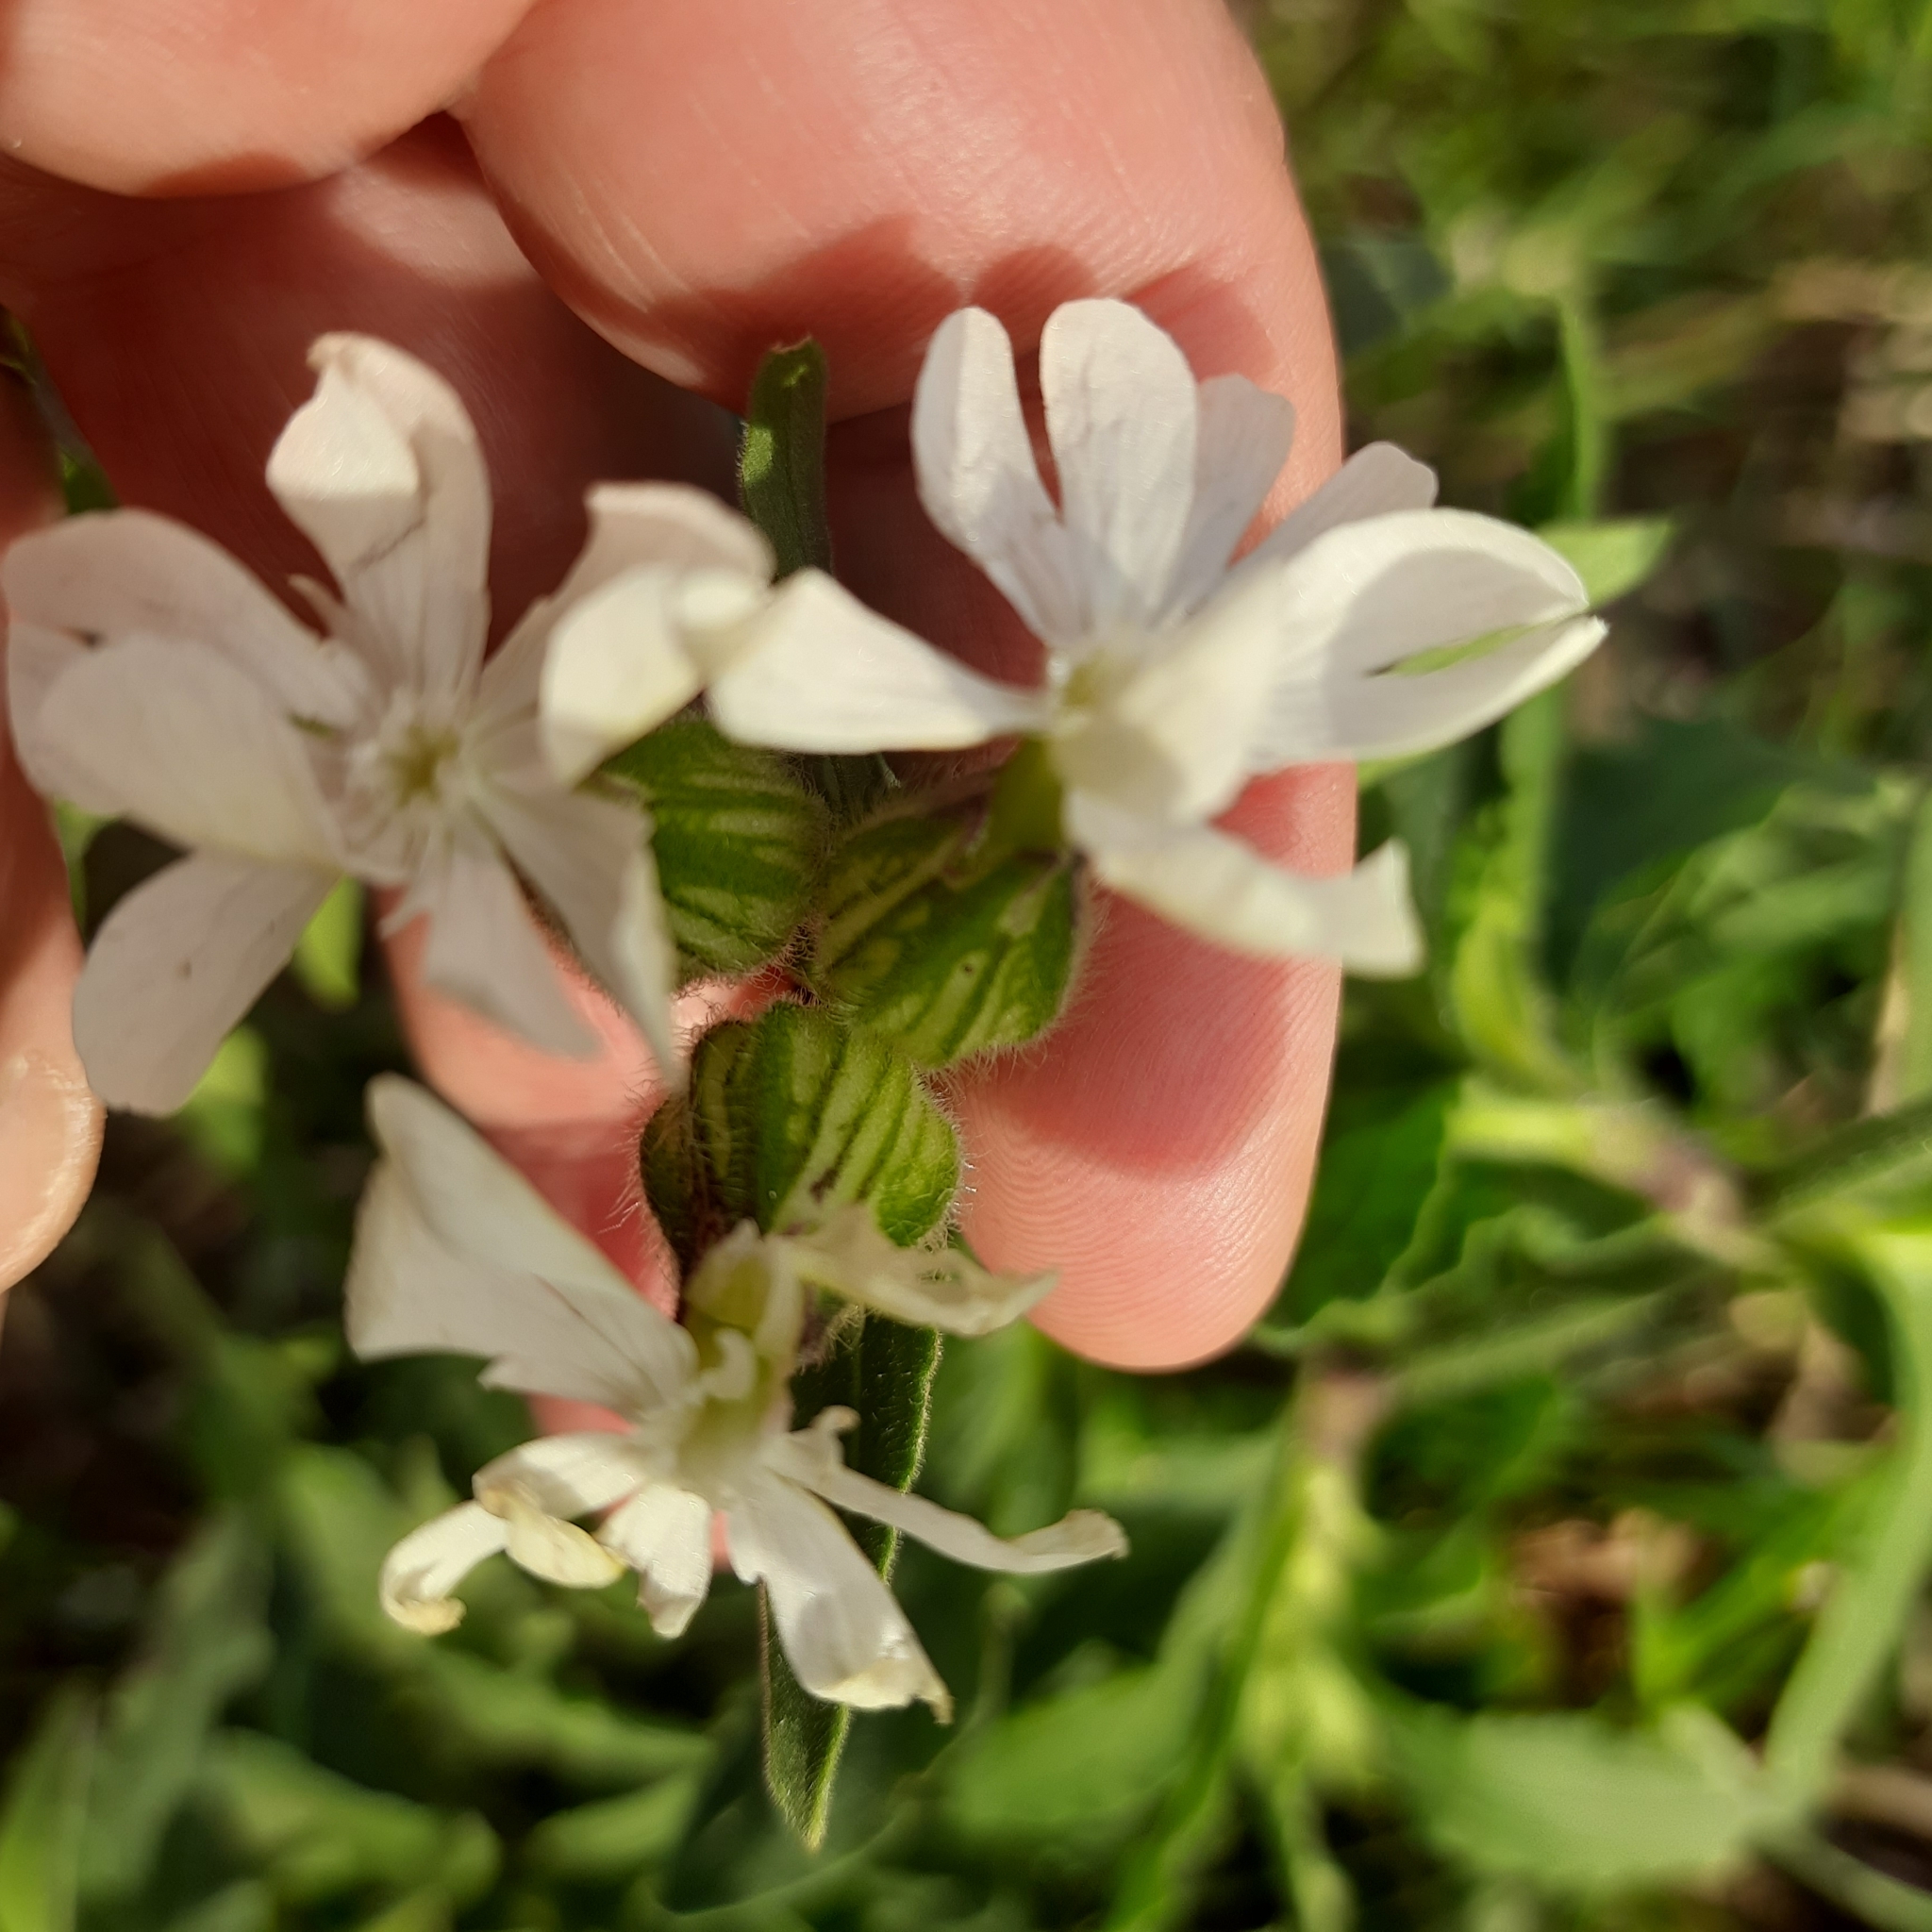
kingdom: Plantae
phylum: Tracheophyta
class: Magnoliopsida
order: Caryophyllales
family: Caryophyllaceae
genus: Silene
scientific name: Silene latifolia
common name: White campion
